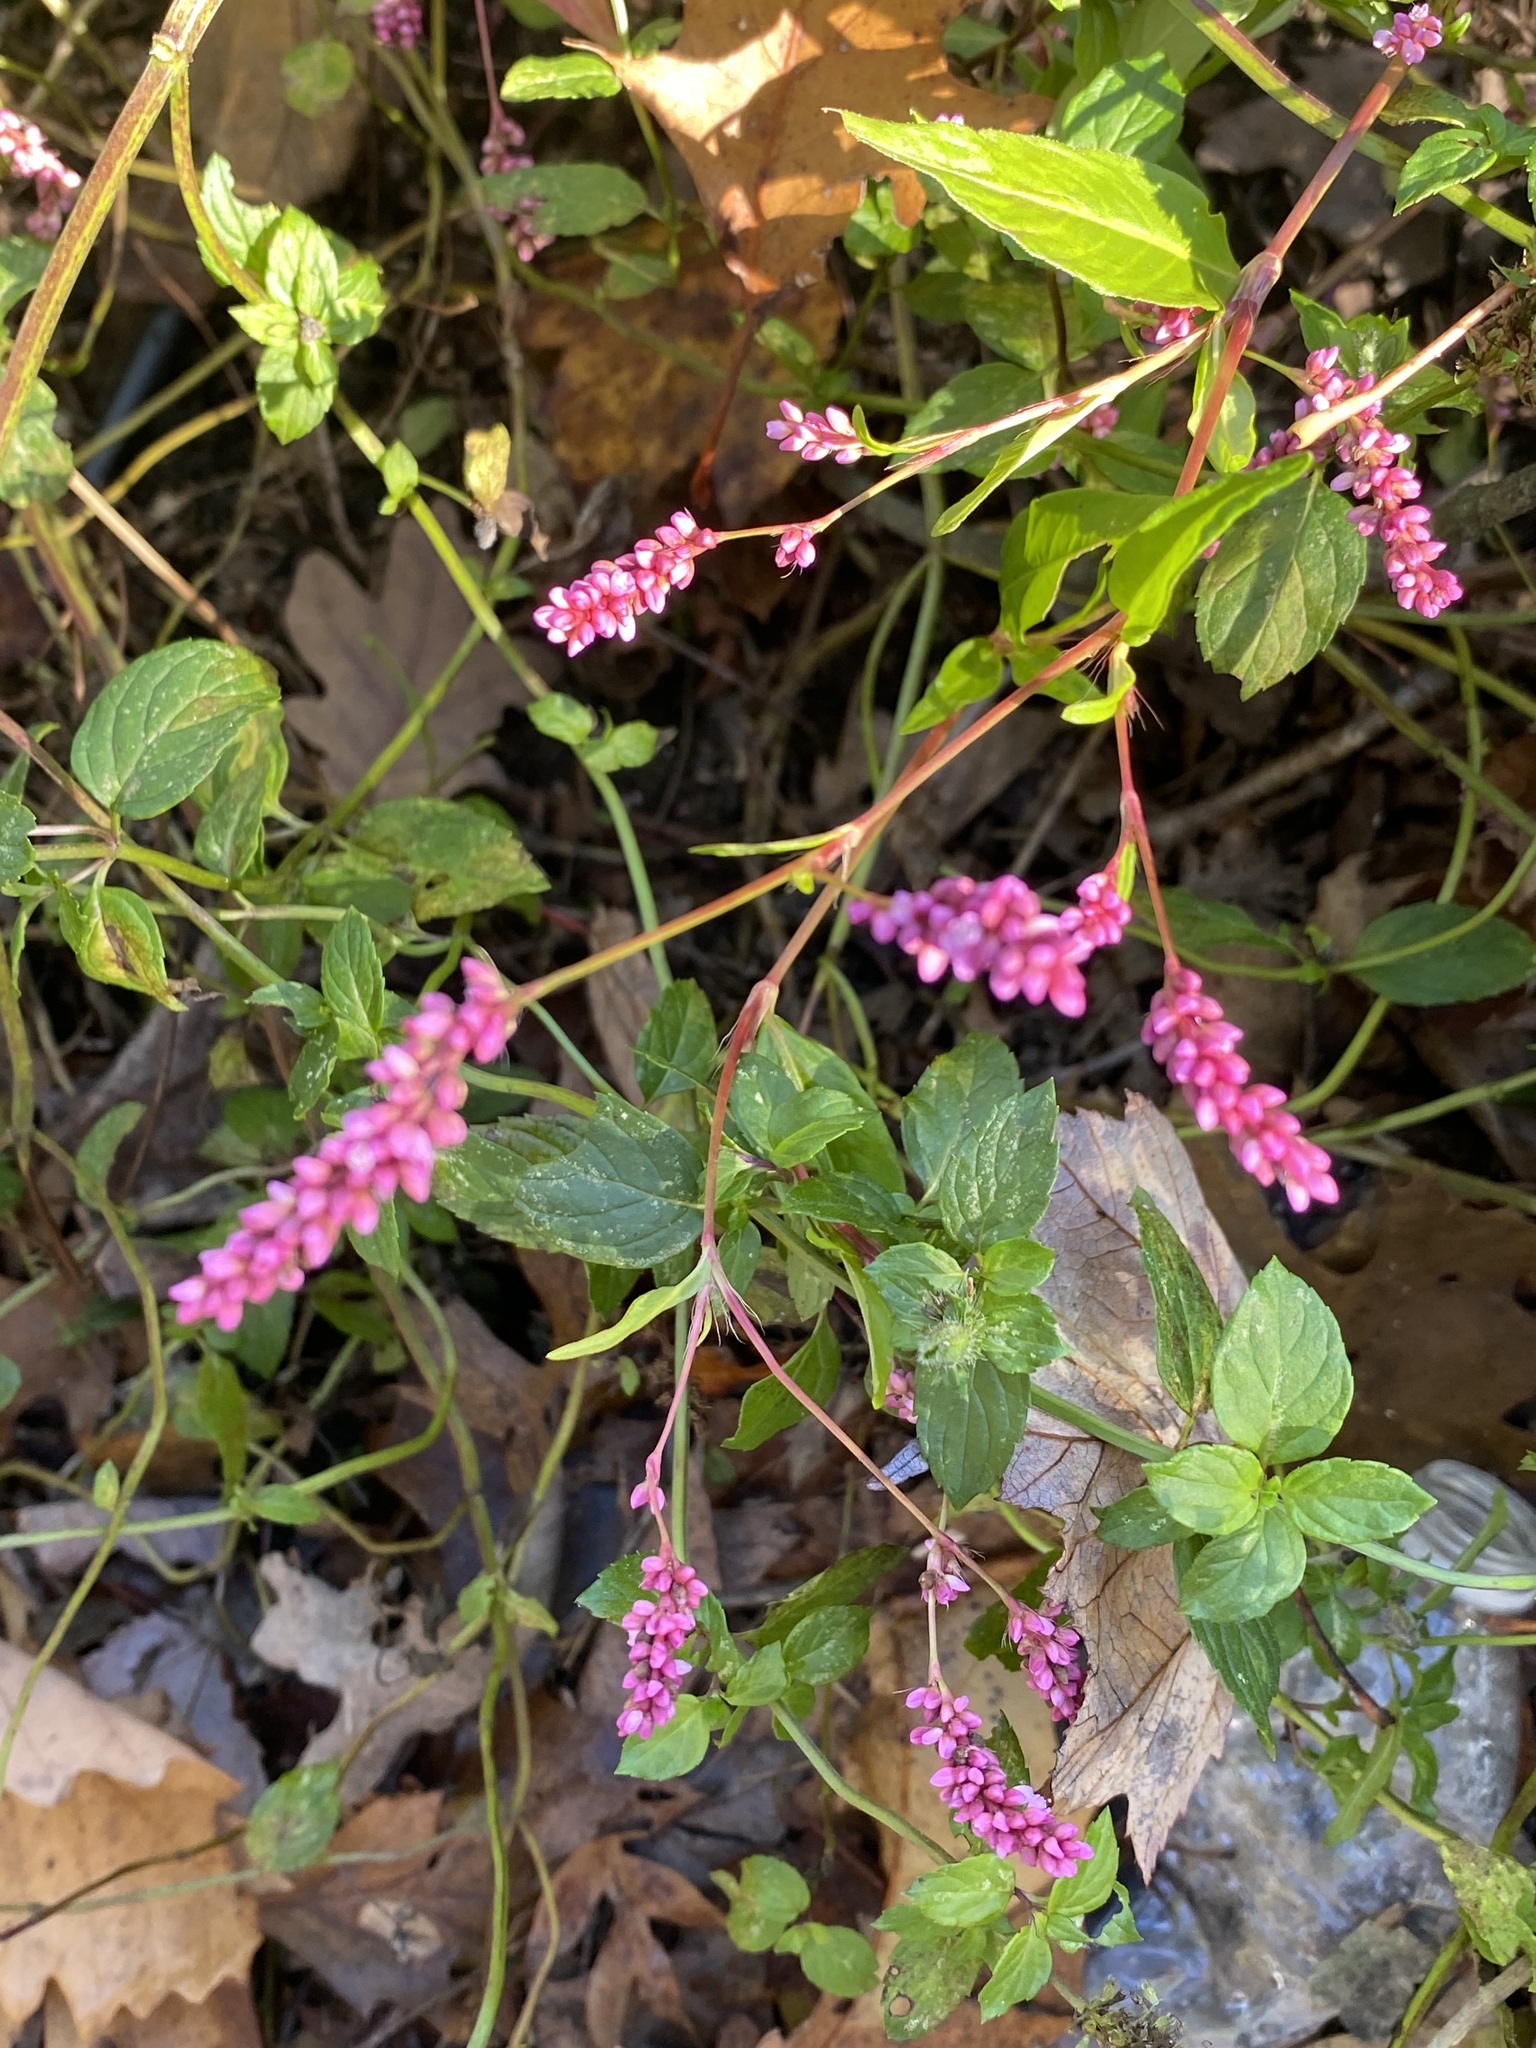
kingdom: Plantae
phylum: Tracheophyta
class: Magnoliopsida
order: Caryophyllales
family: Polygonaceae
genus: Persicaria
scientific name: Persicaria longiseta
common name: Bristly lady's-thumb
